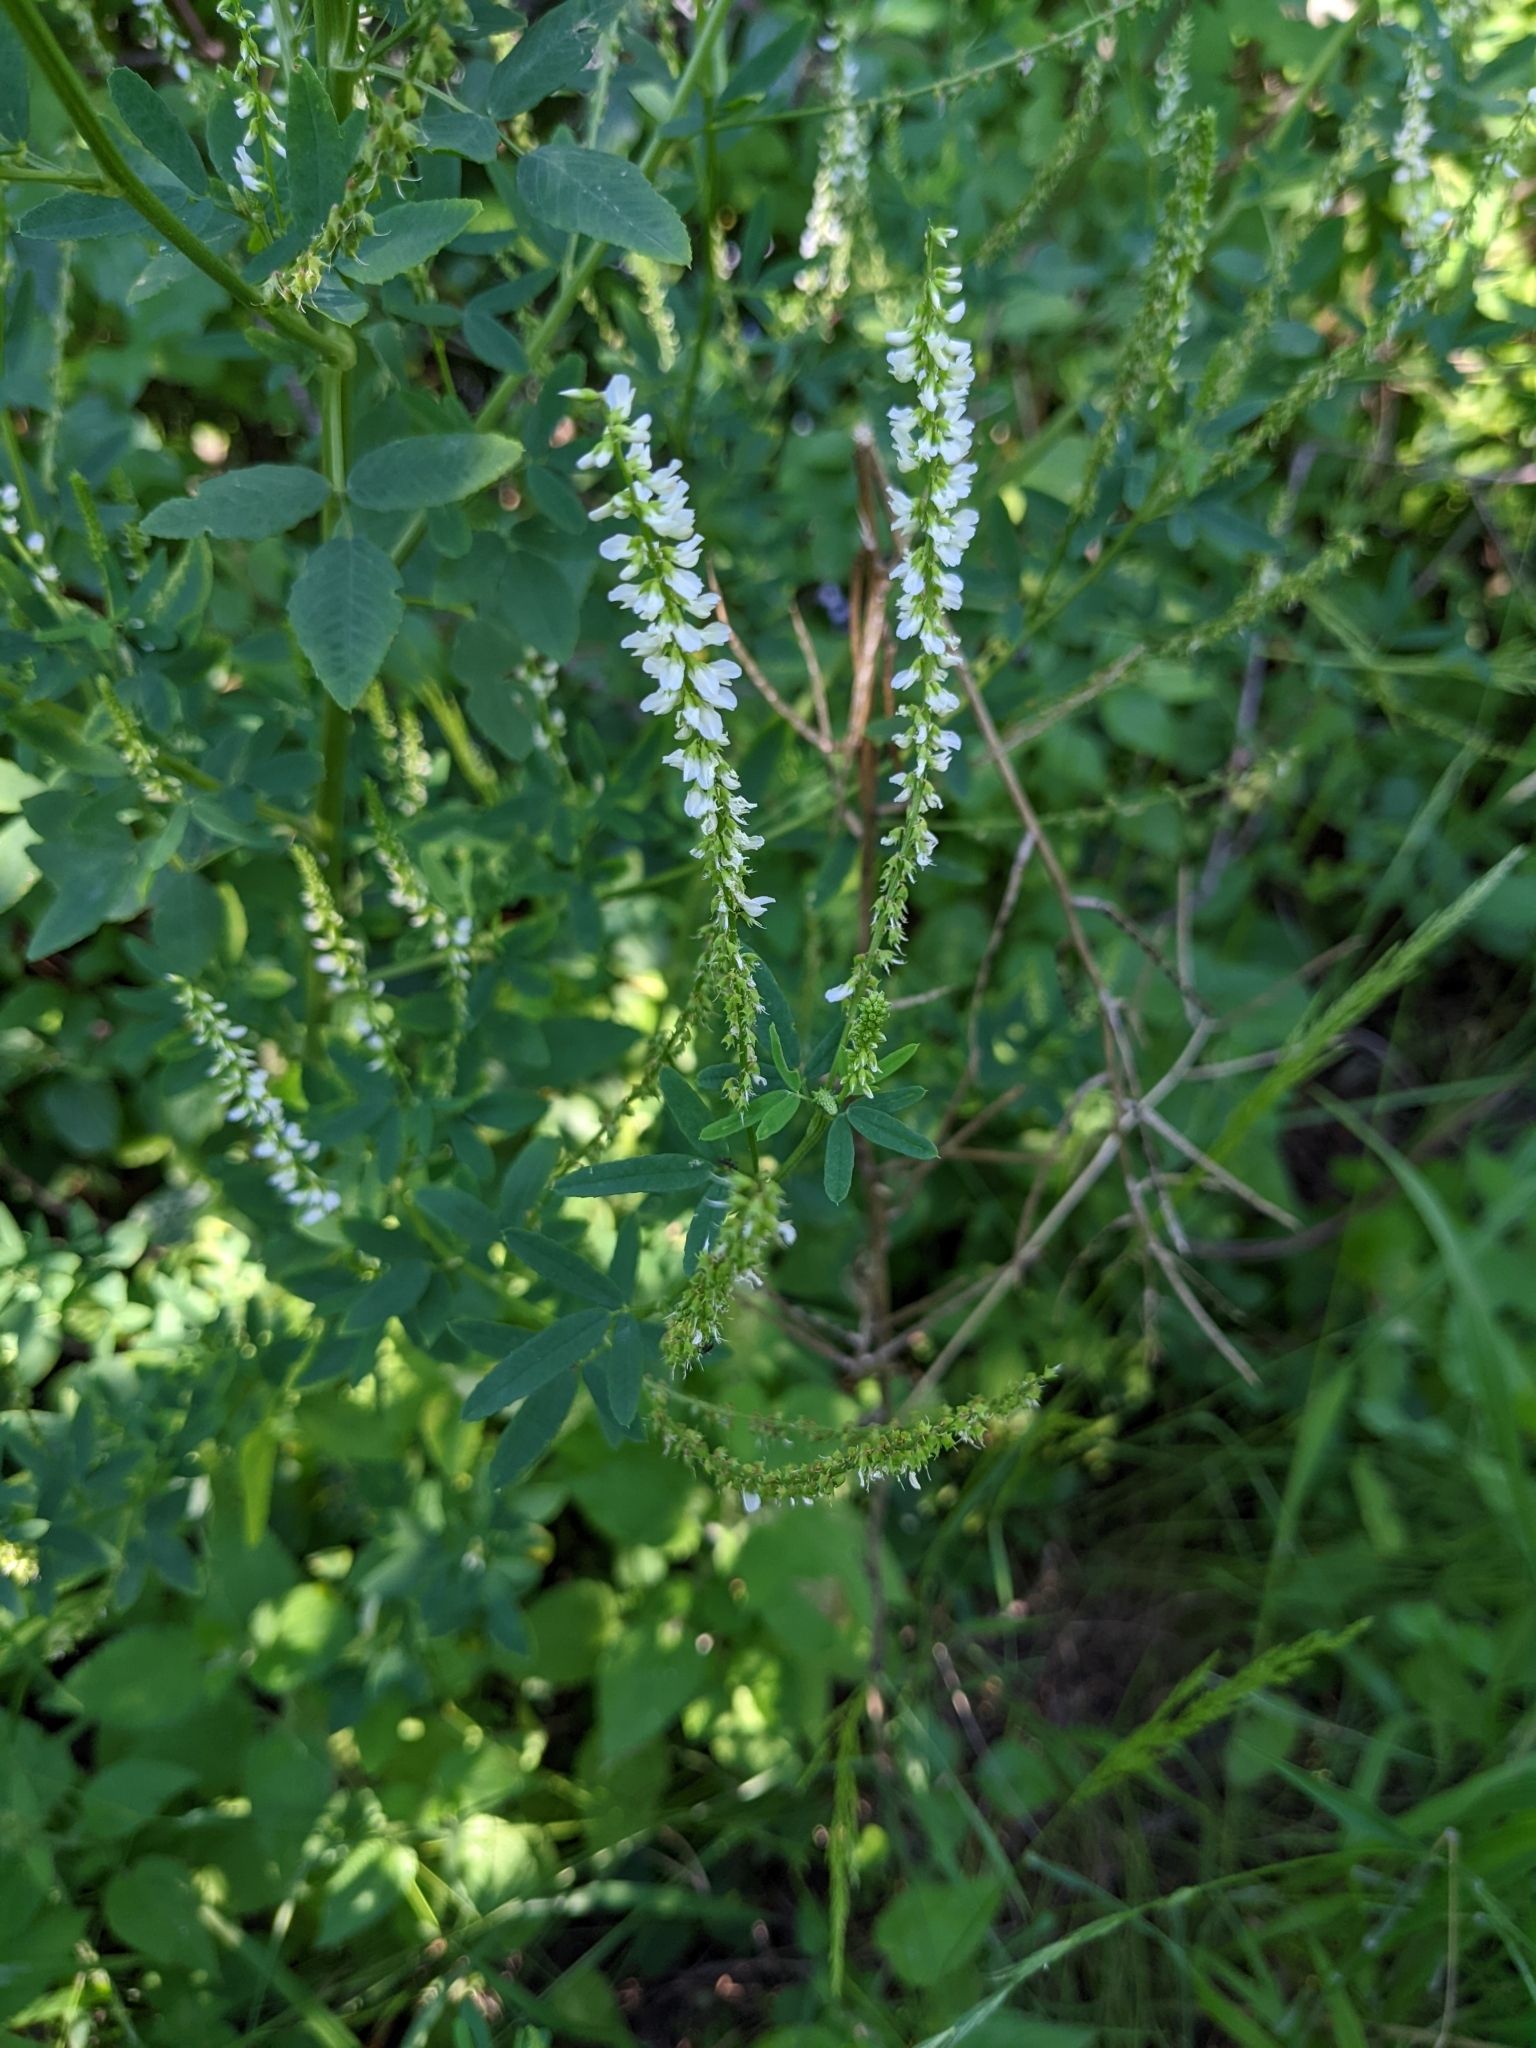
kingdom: Plantae
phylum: Tracheophyta
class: Magnoliopsida
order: Fabales
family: Fabaceae
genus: Melilotus
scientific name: Melilotus albus
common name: White melilot
